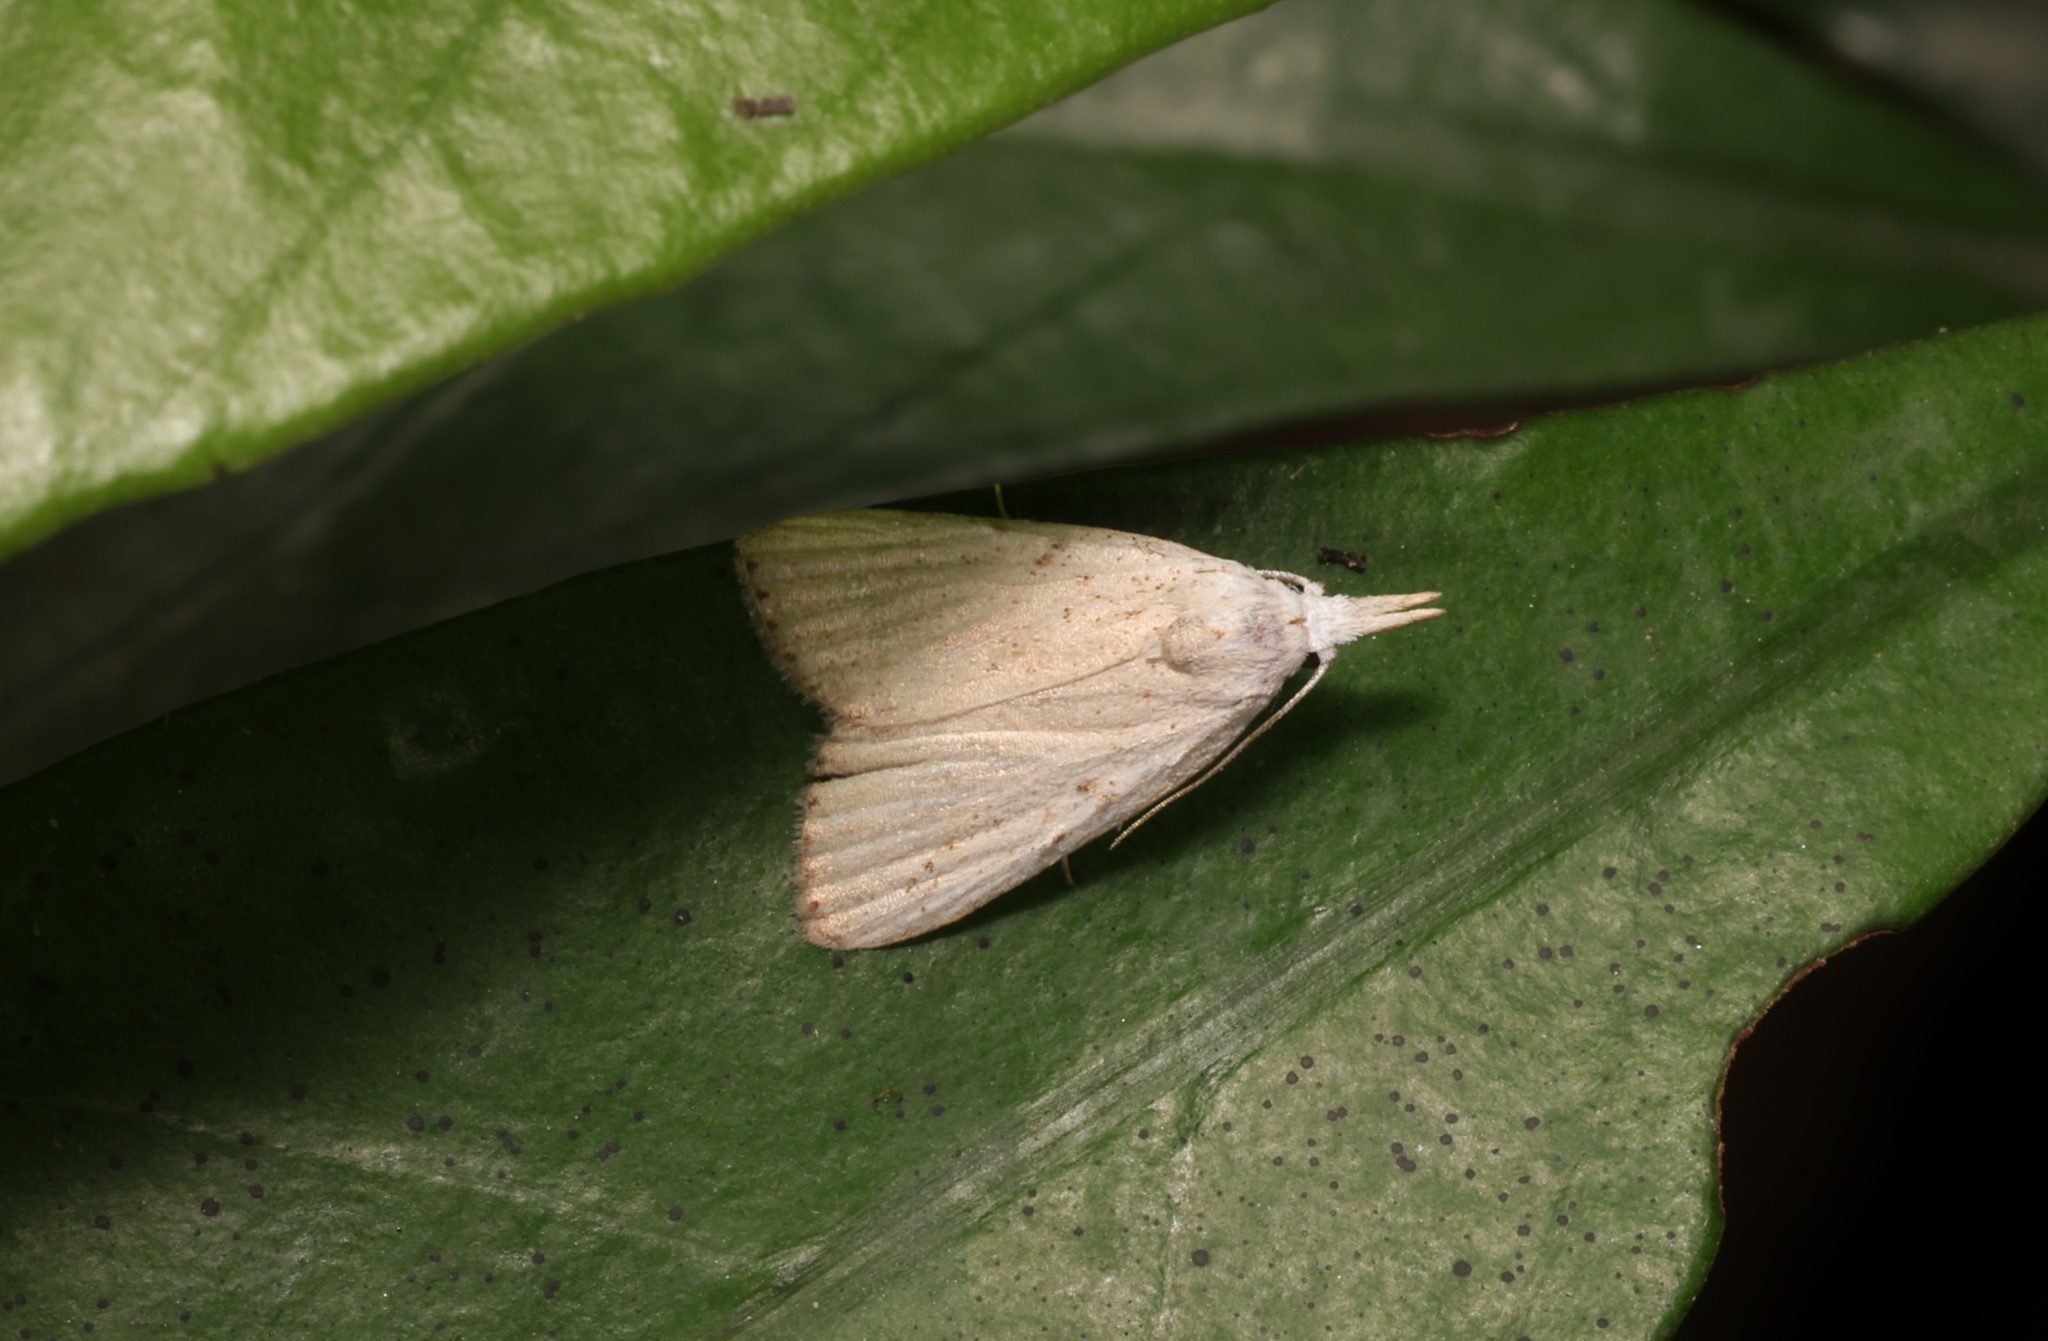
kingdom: Animalia
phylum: Arthropoda
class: Insecta
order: Lepidoptera
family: Nolidae
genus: Meganola
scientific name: Meganola brunellus
